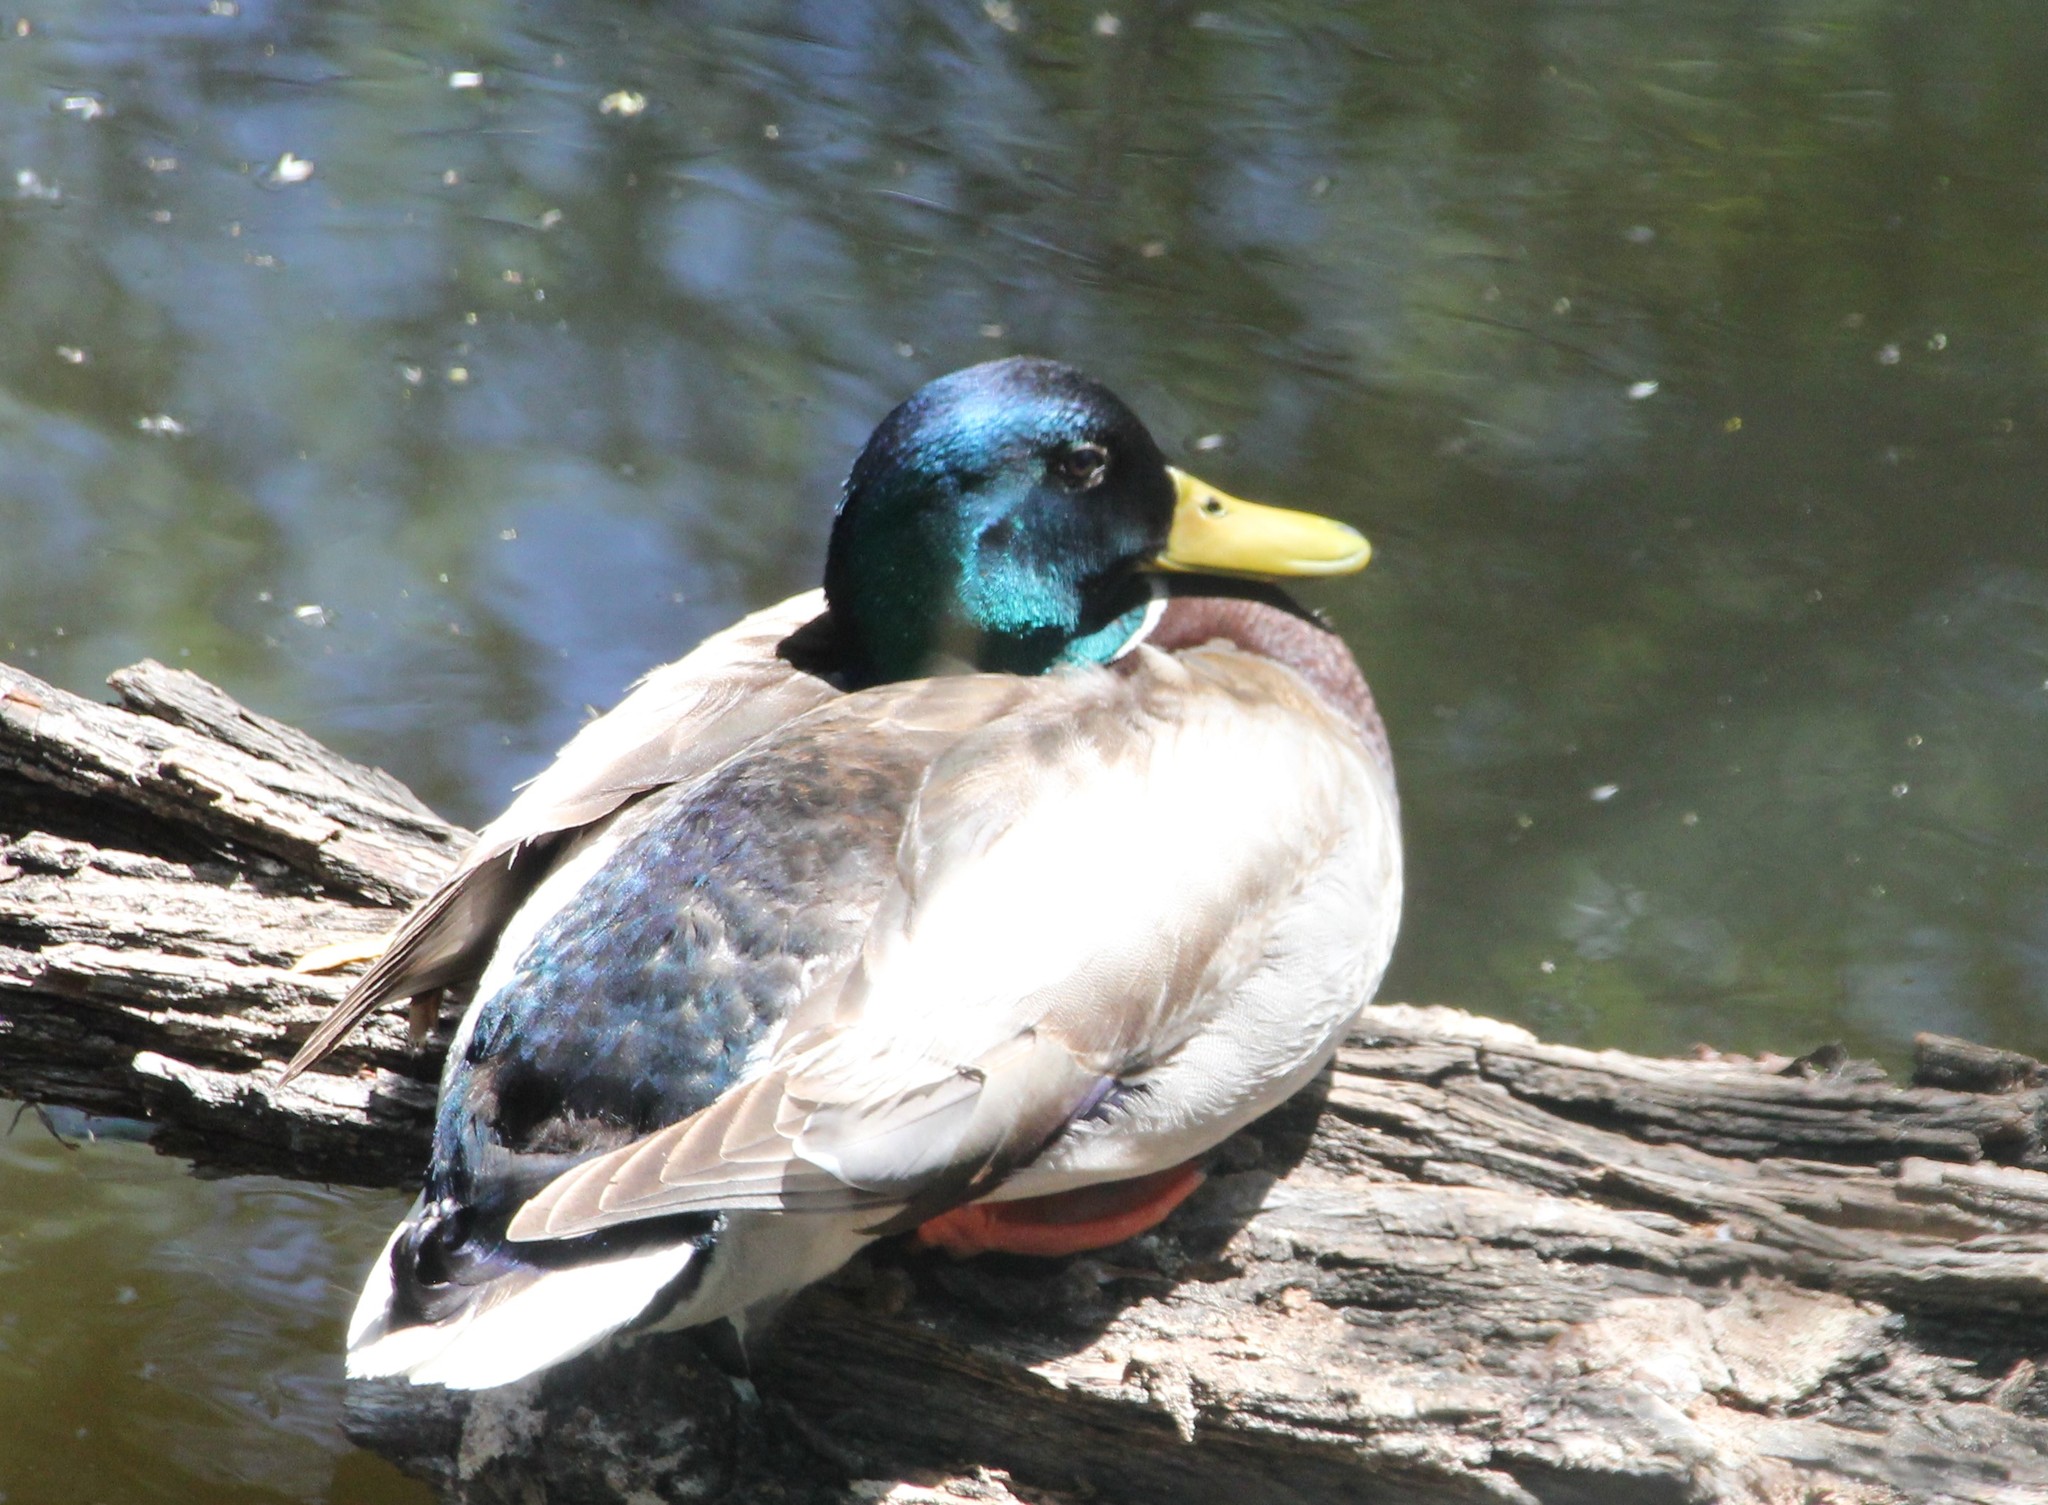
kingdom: Animalia
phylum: Chordata
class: Aves
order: Anseriformes
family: Anatidae
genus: Anas
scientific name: Anas platyrhynchos
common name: Mallard
